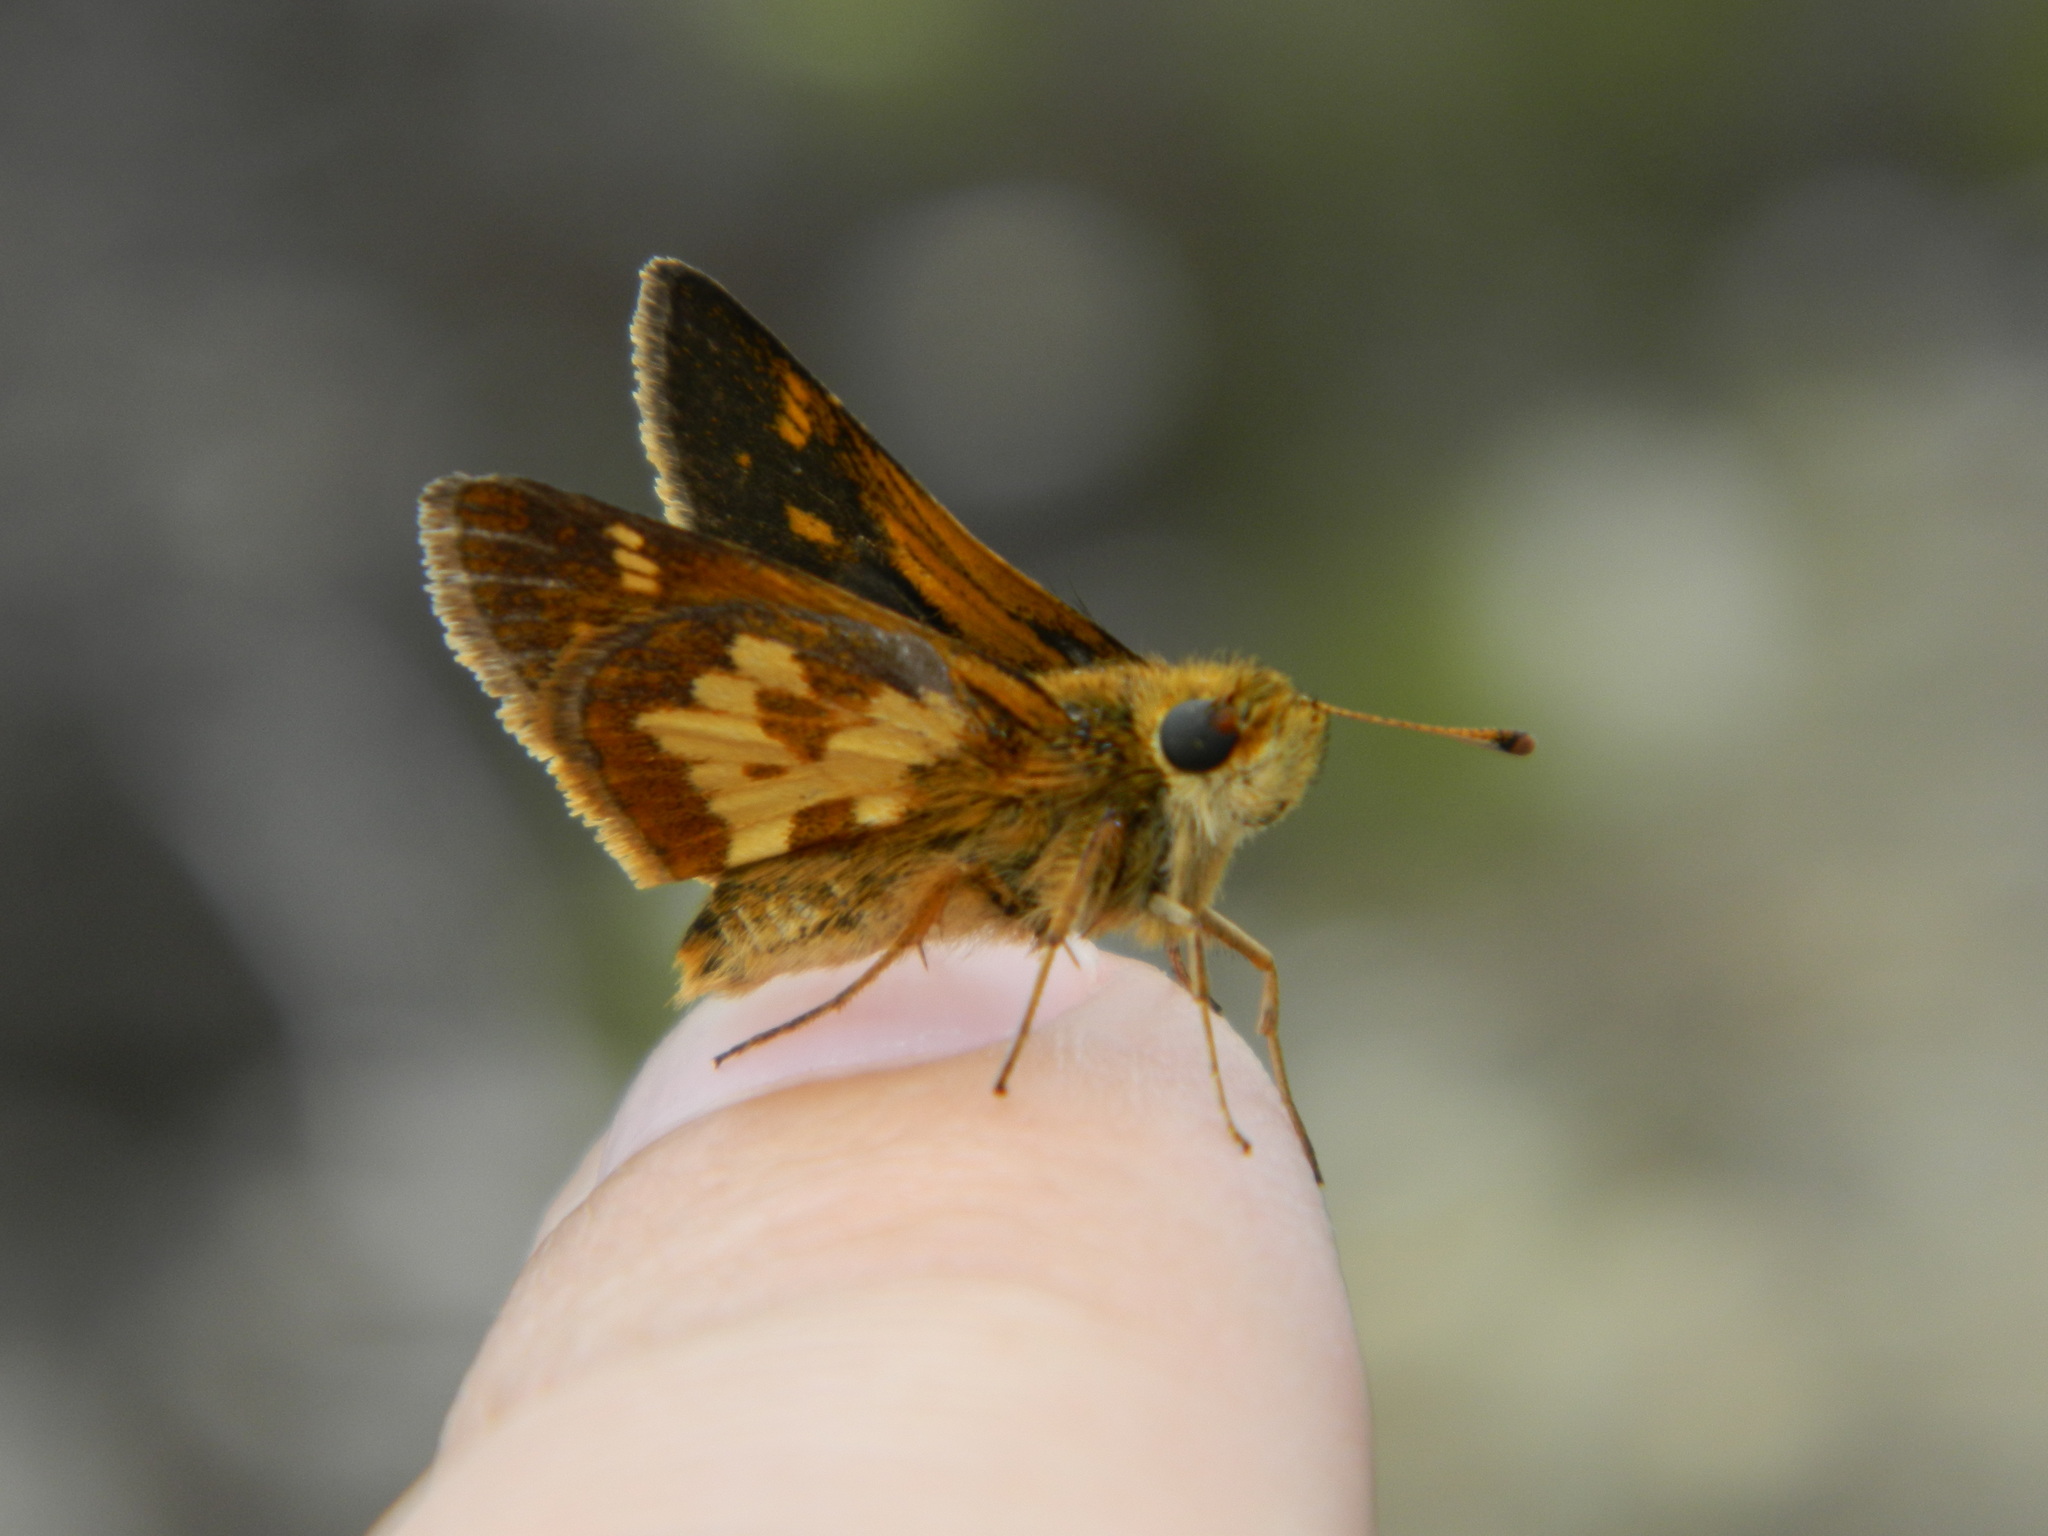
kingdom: Animalia
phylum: Arthropoda
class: Insecta
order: Lepidoptera
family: Hesperiidae
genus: Polites
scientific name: Polites coras
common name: Peck's skipper
